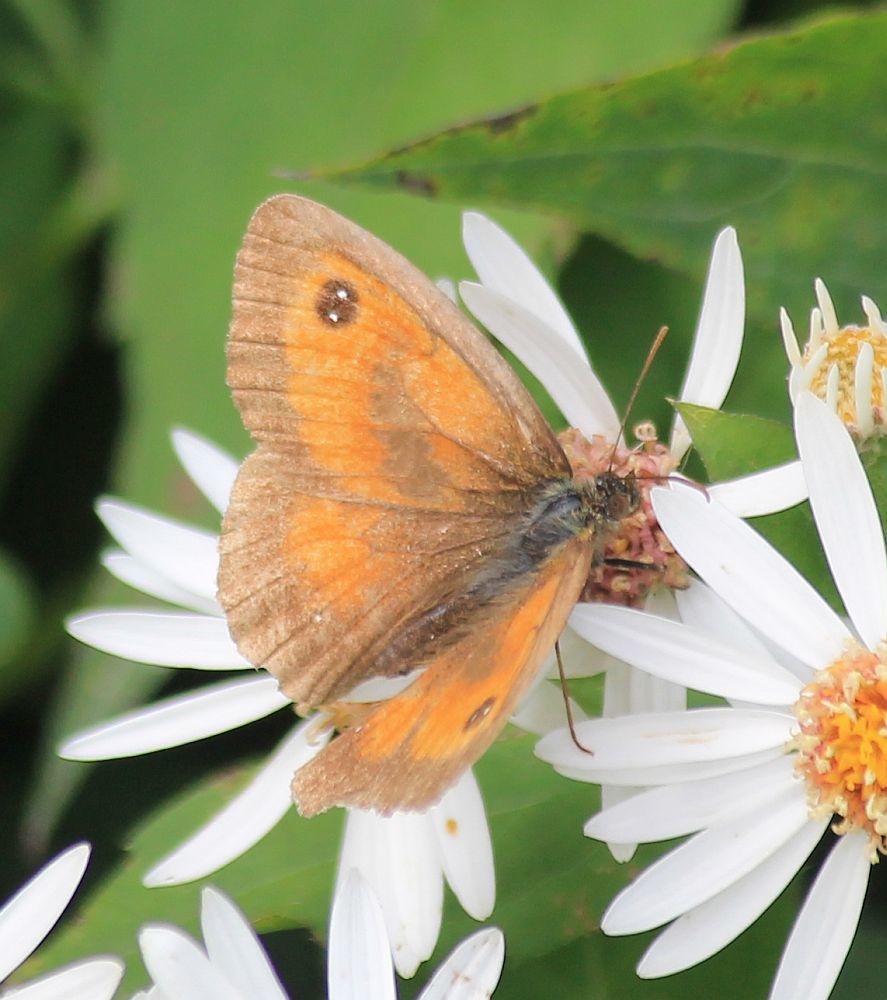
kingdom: Animalia
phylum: Arthropoda
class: Insecta
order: Lepidoptera
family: Nymphalidae
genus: Pyronia
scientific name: Pyronia tithonus
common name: Gatekeeper
